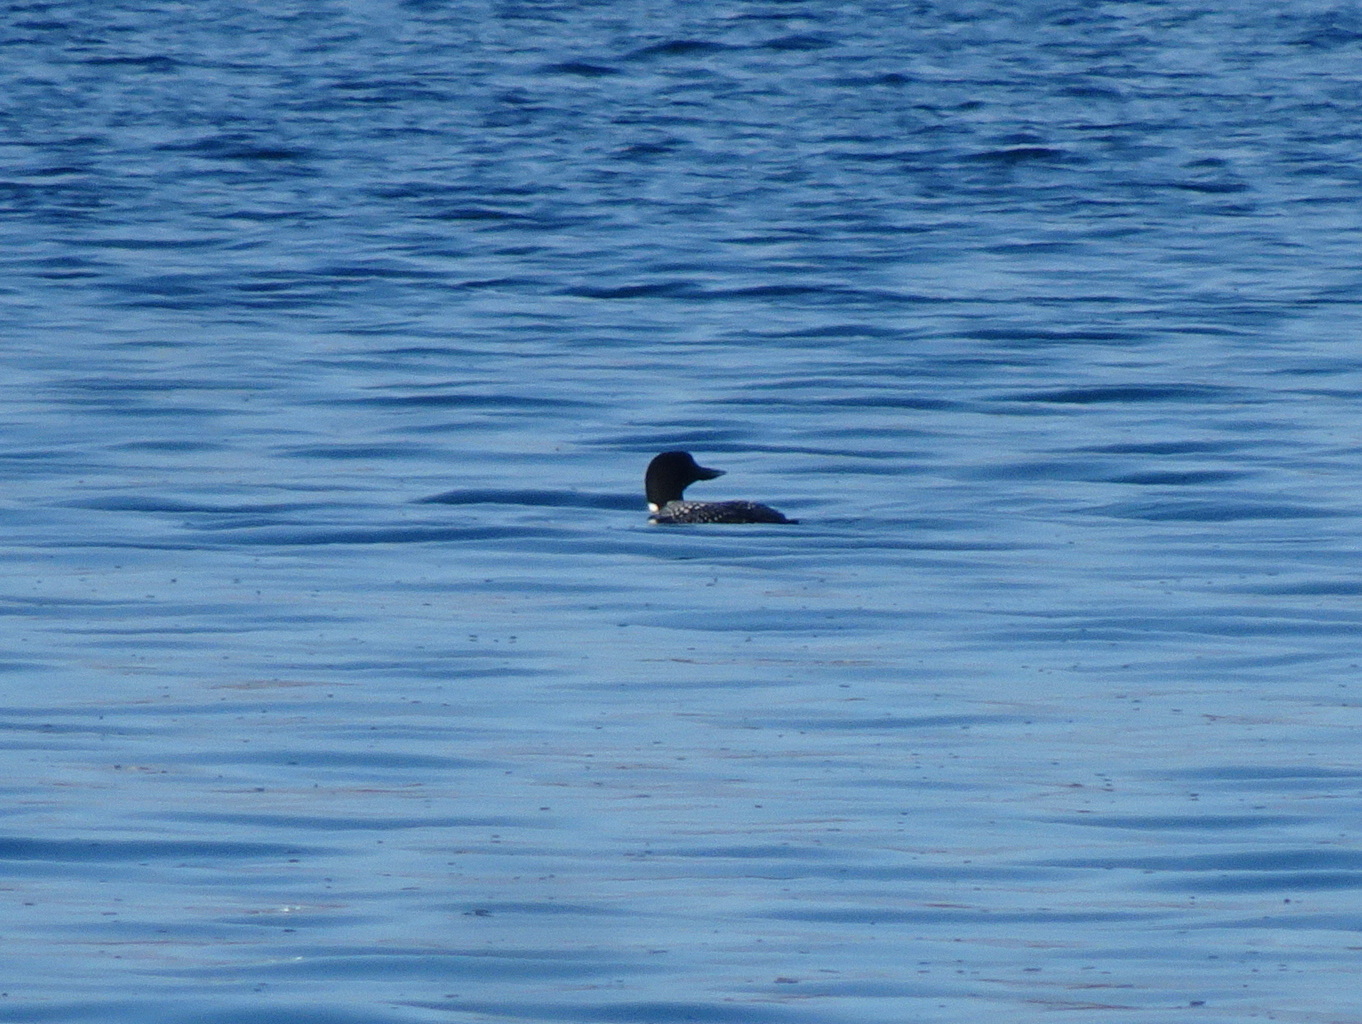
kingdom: Animalia
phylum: Chordata
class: Aves
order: Gaviiformes
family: Gaviidae
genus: Gavia
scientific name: Gavia immer
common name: Common loon
